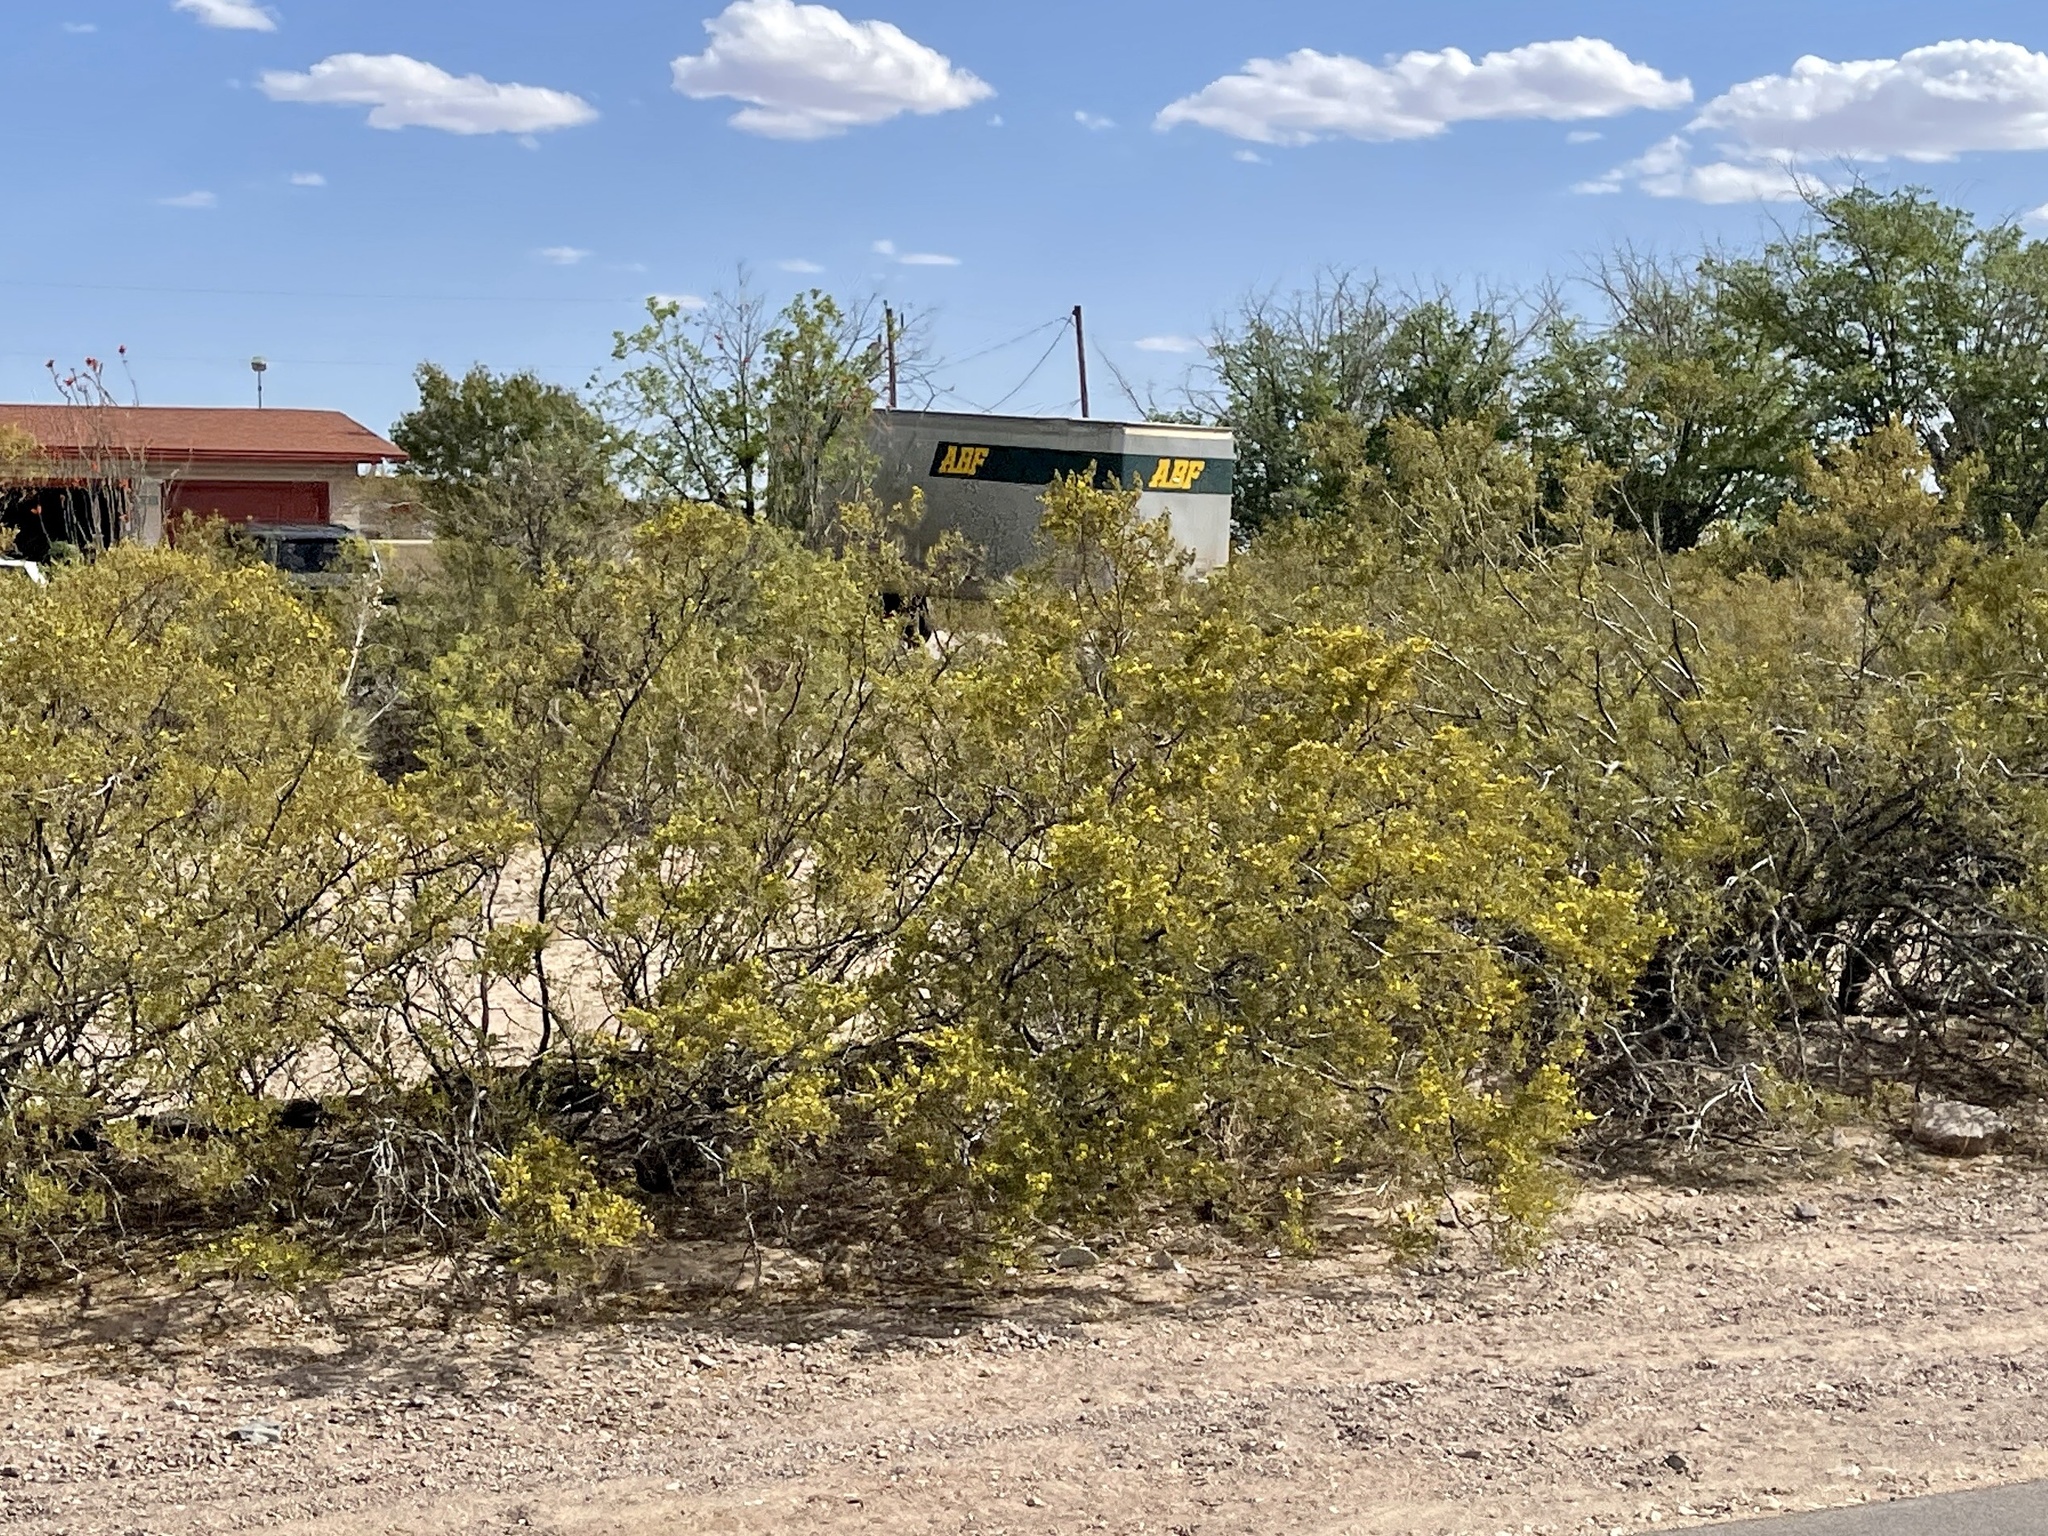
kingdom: Plantae
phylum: Tracheophyta
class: Magnoliopsida
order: Zygophyllales
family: Zygophyllaceae
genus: Larrea
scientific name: Larrea tridentata
